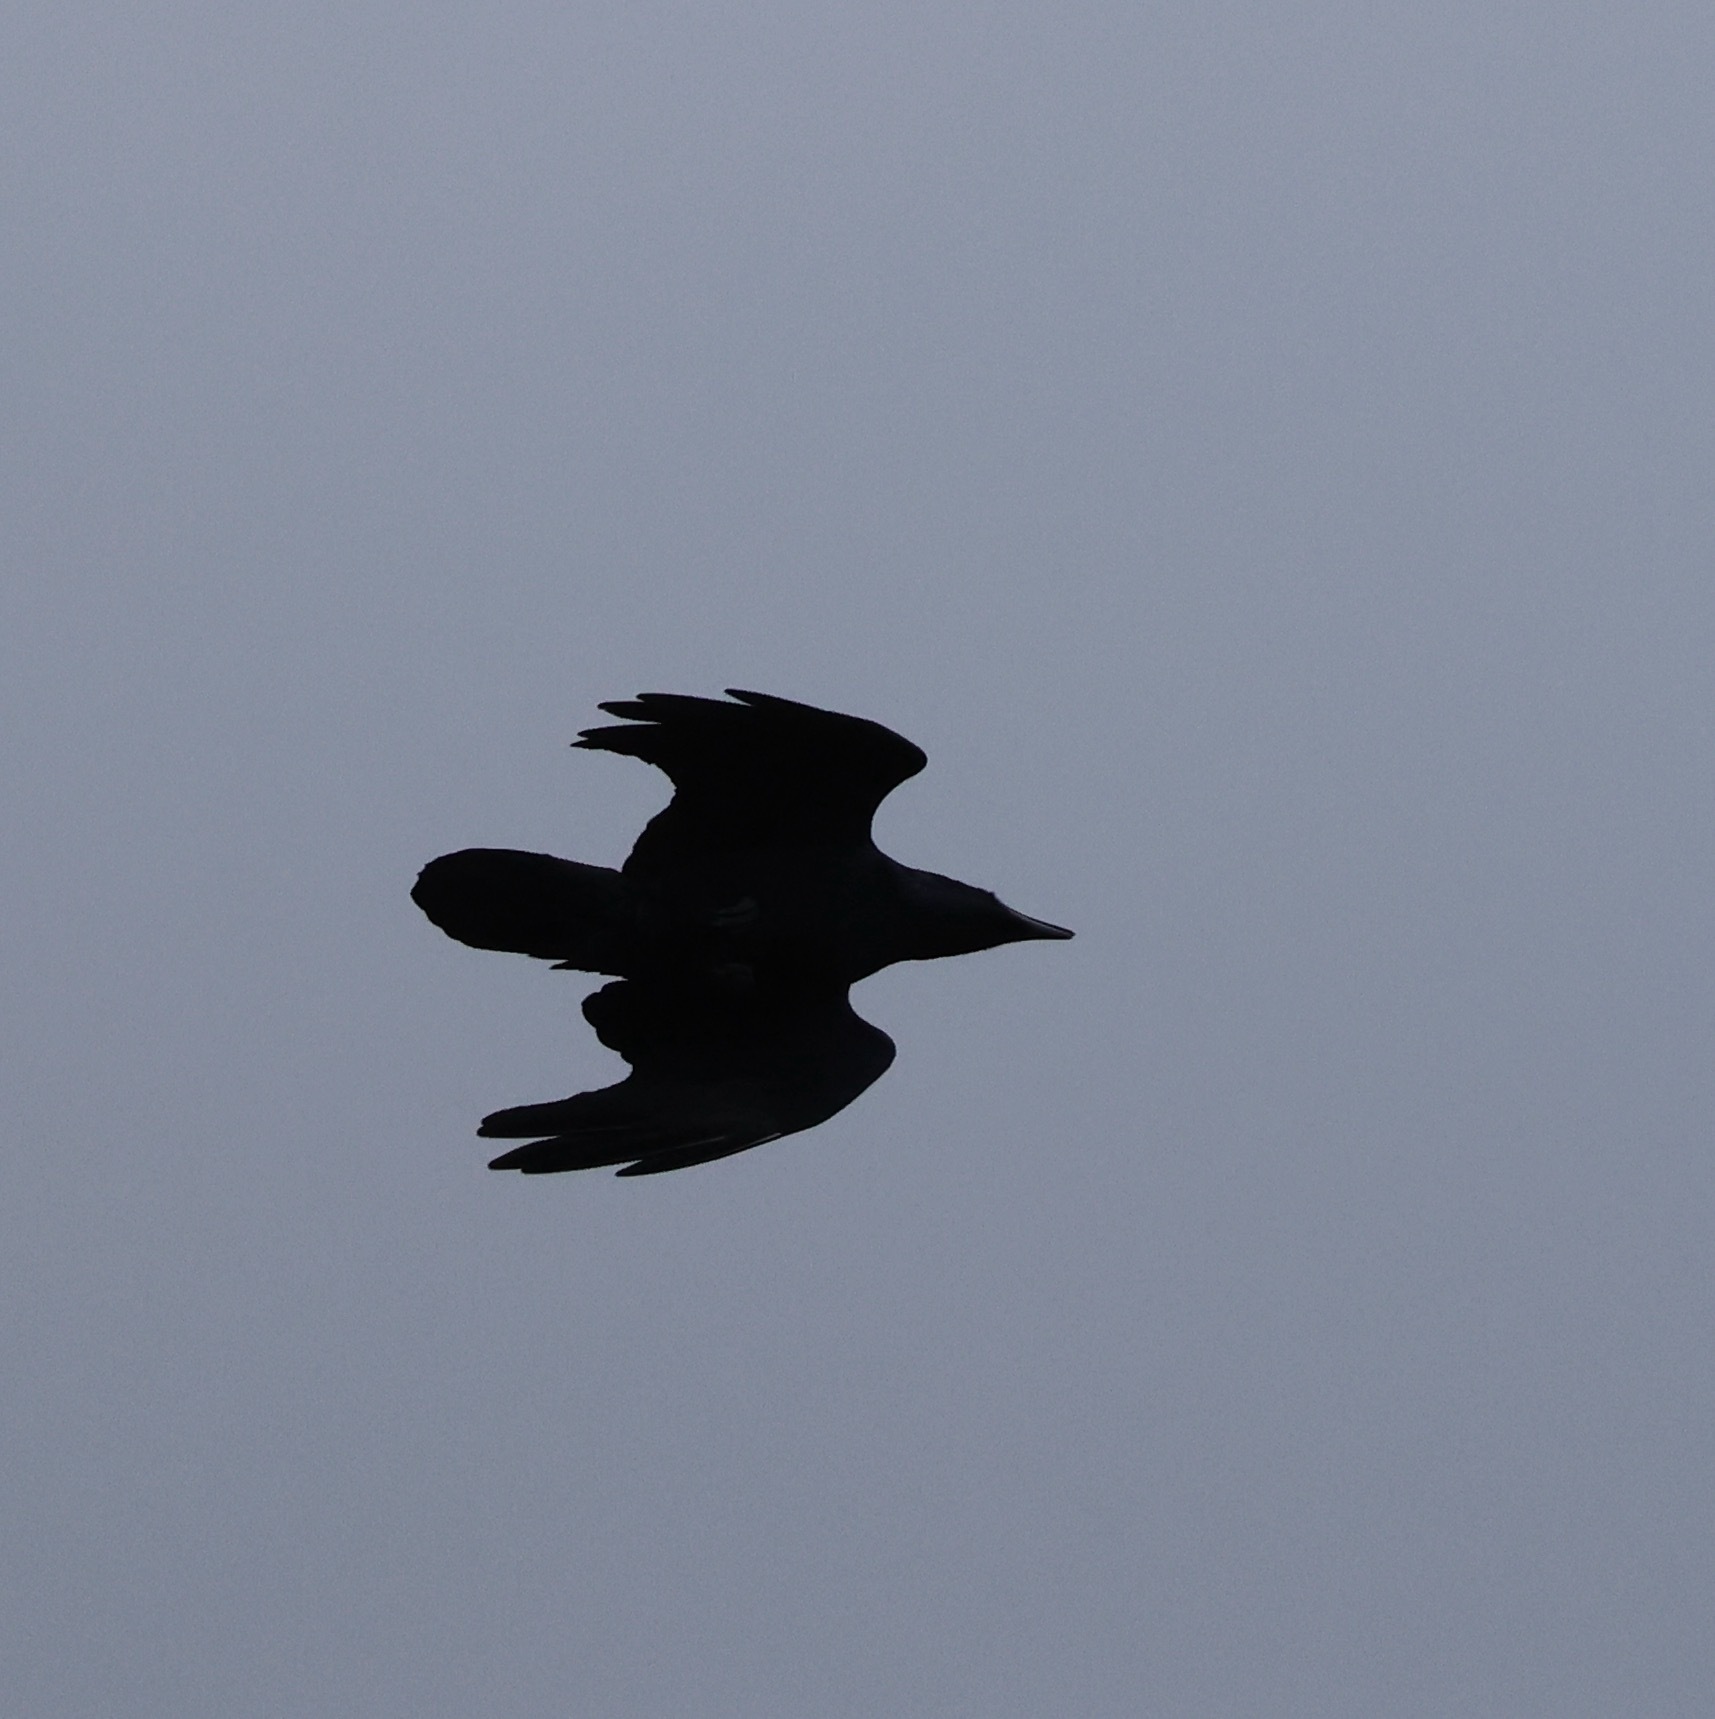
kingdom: Animalia
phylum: Chordata
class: Aves
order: Passeriformes
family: Corvidae
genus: Corvus
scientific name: Corvus corax
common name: Common raven
